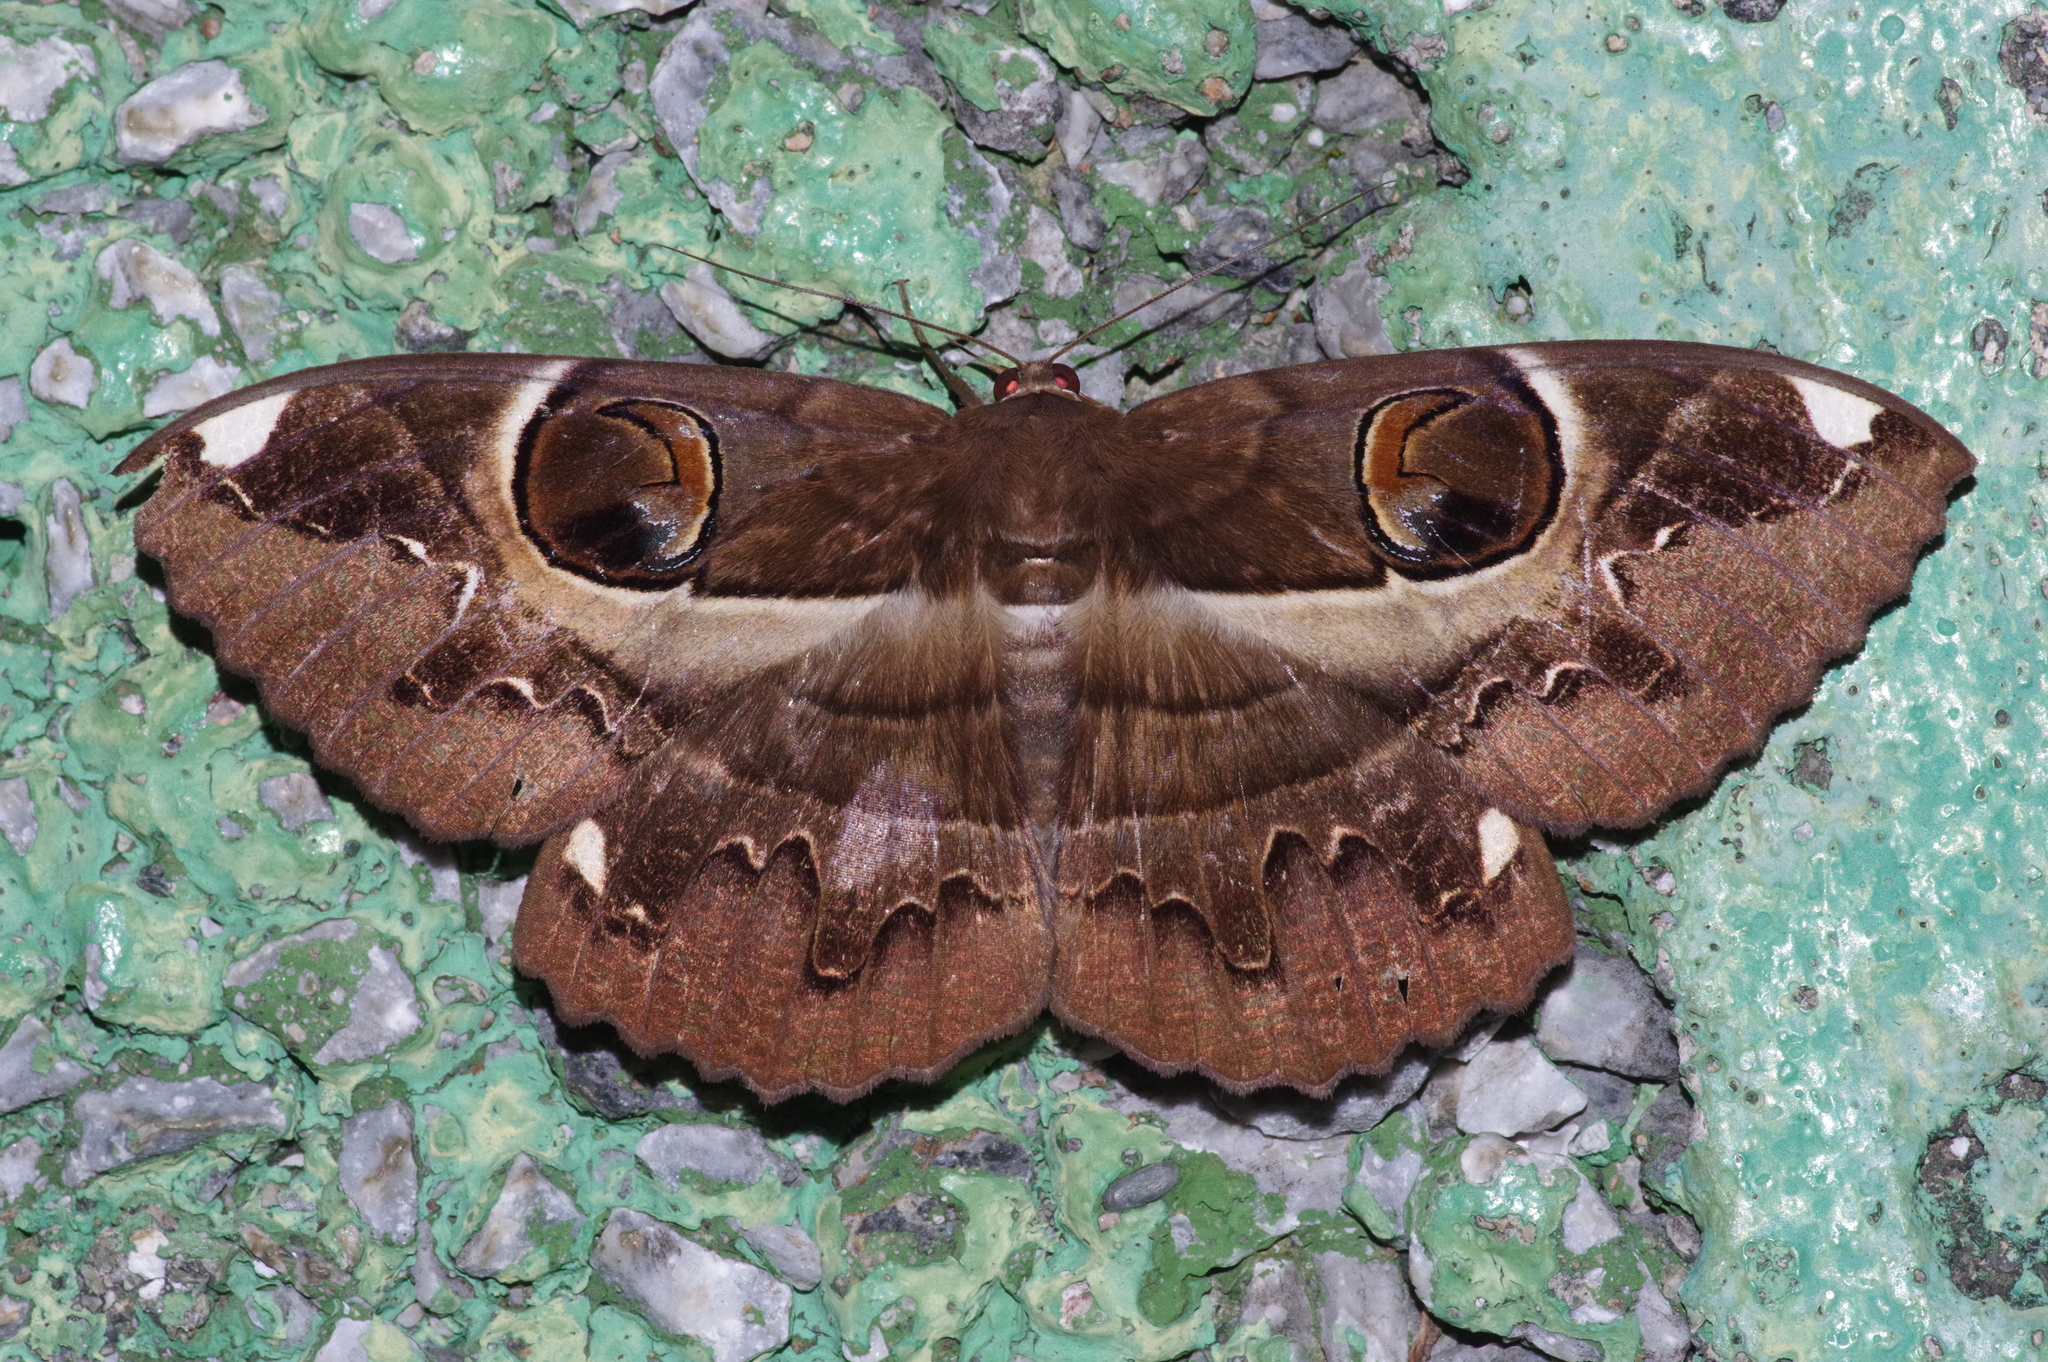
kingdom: Animalia
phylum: Arthropoda
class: Insecta
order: Lepidoptera
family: Erebidae
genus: Erebus
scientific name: Erebus ephesperis
